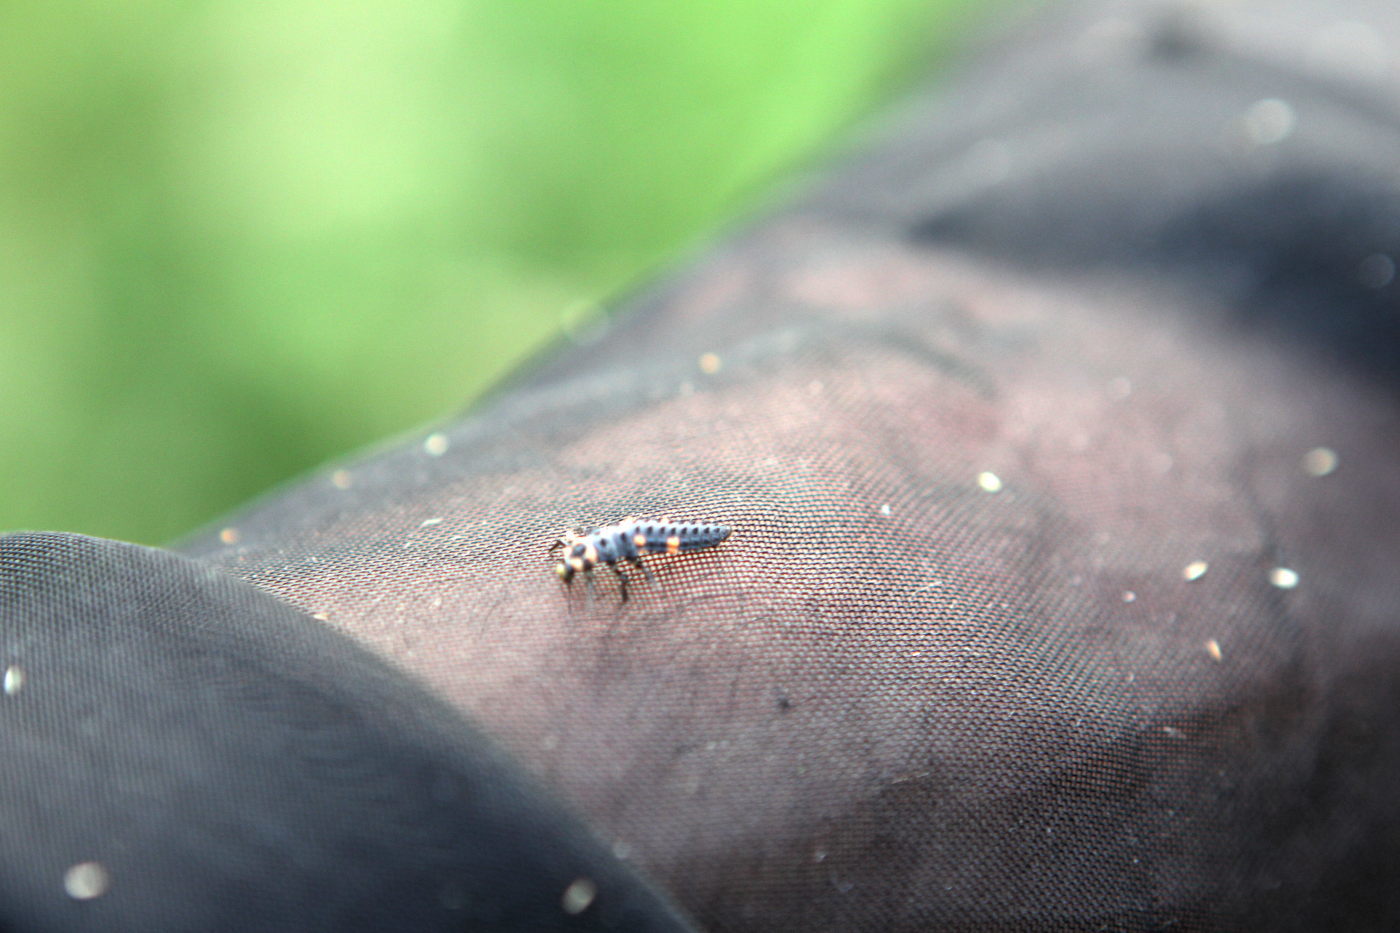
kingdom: Animalia
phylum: Arthropoda
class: Insecta
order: Coleoptera
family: Coccinellidae
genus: Coccinella
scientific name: Coccinella septempunctata
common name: Sevenspotted lady beetle
